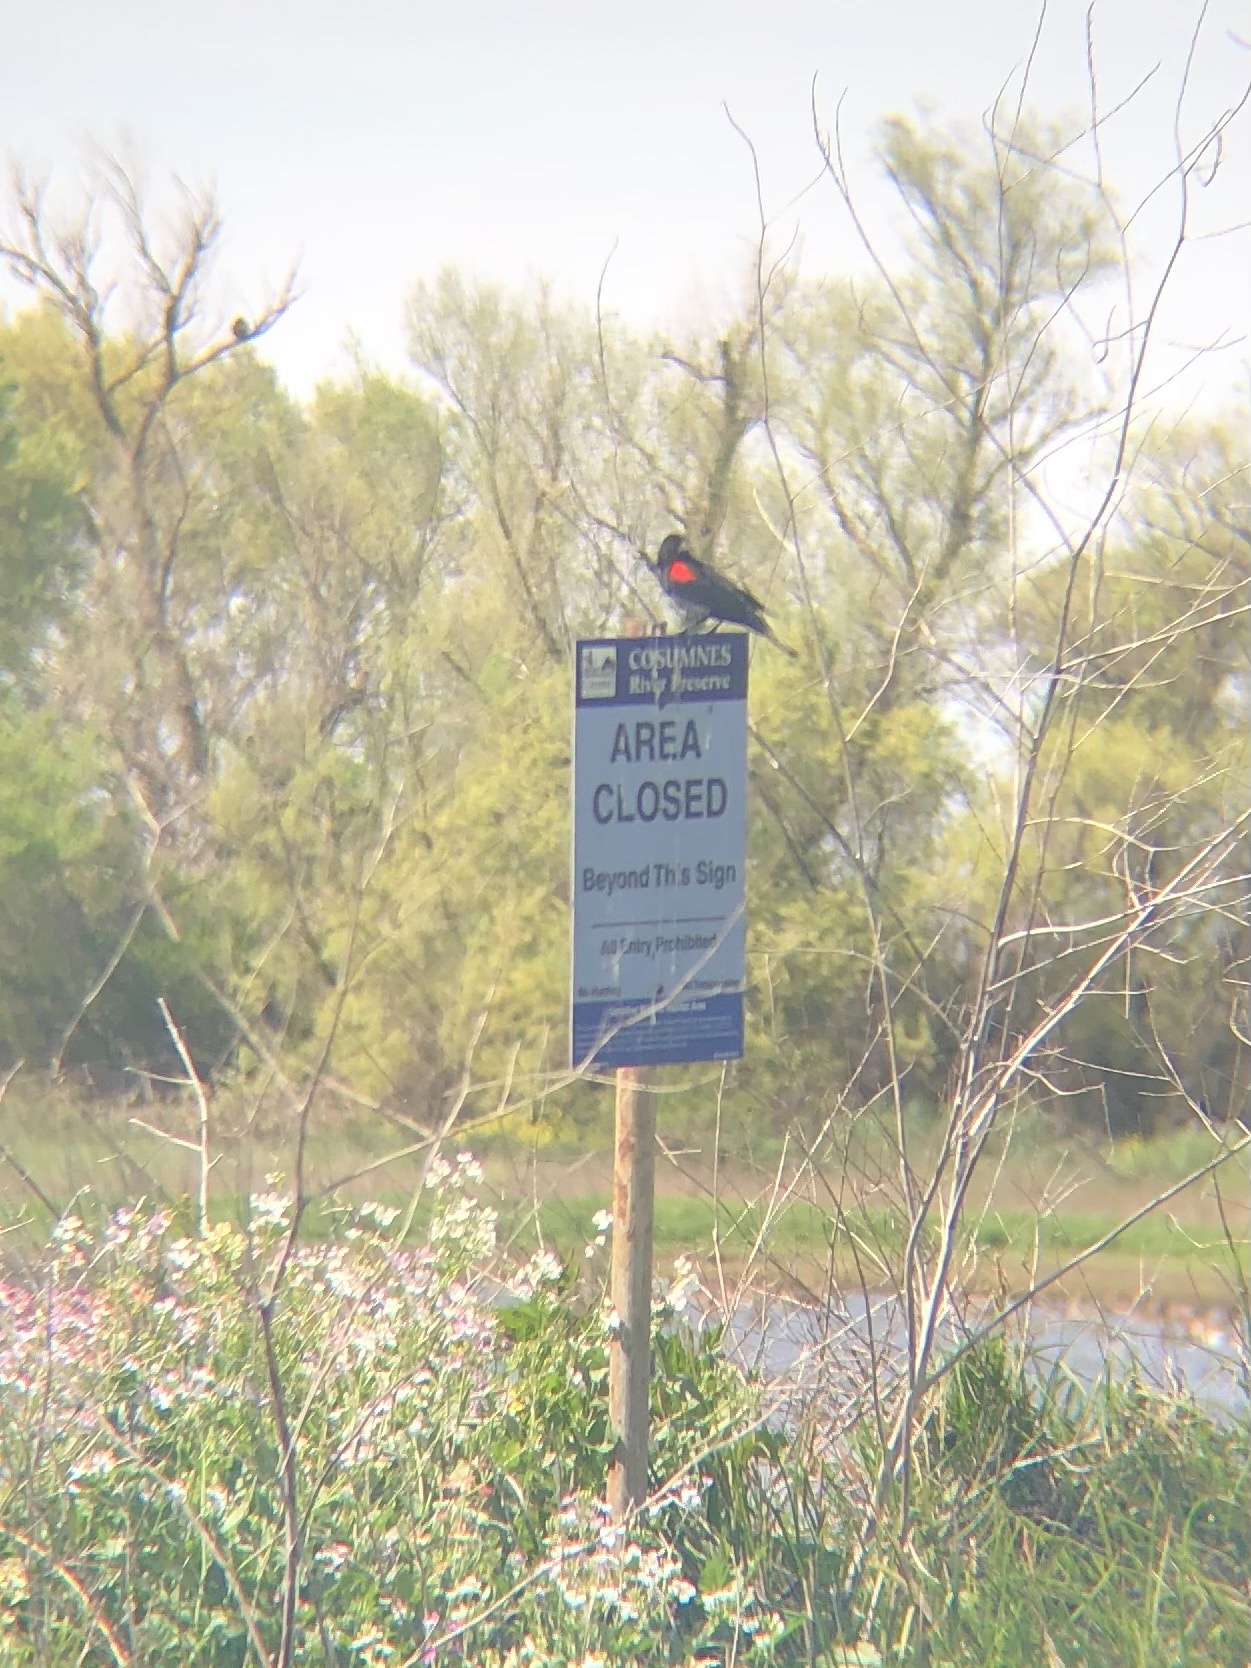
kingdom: Animalia
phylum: Chordata
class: Aves
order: Passeriformes
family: Icteridae
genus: Agelaius
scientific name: Agelaius phoeniceus
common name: Red-winged blackbird
